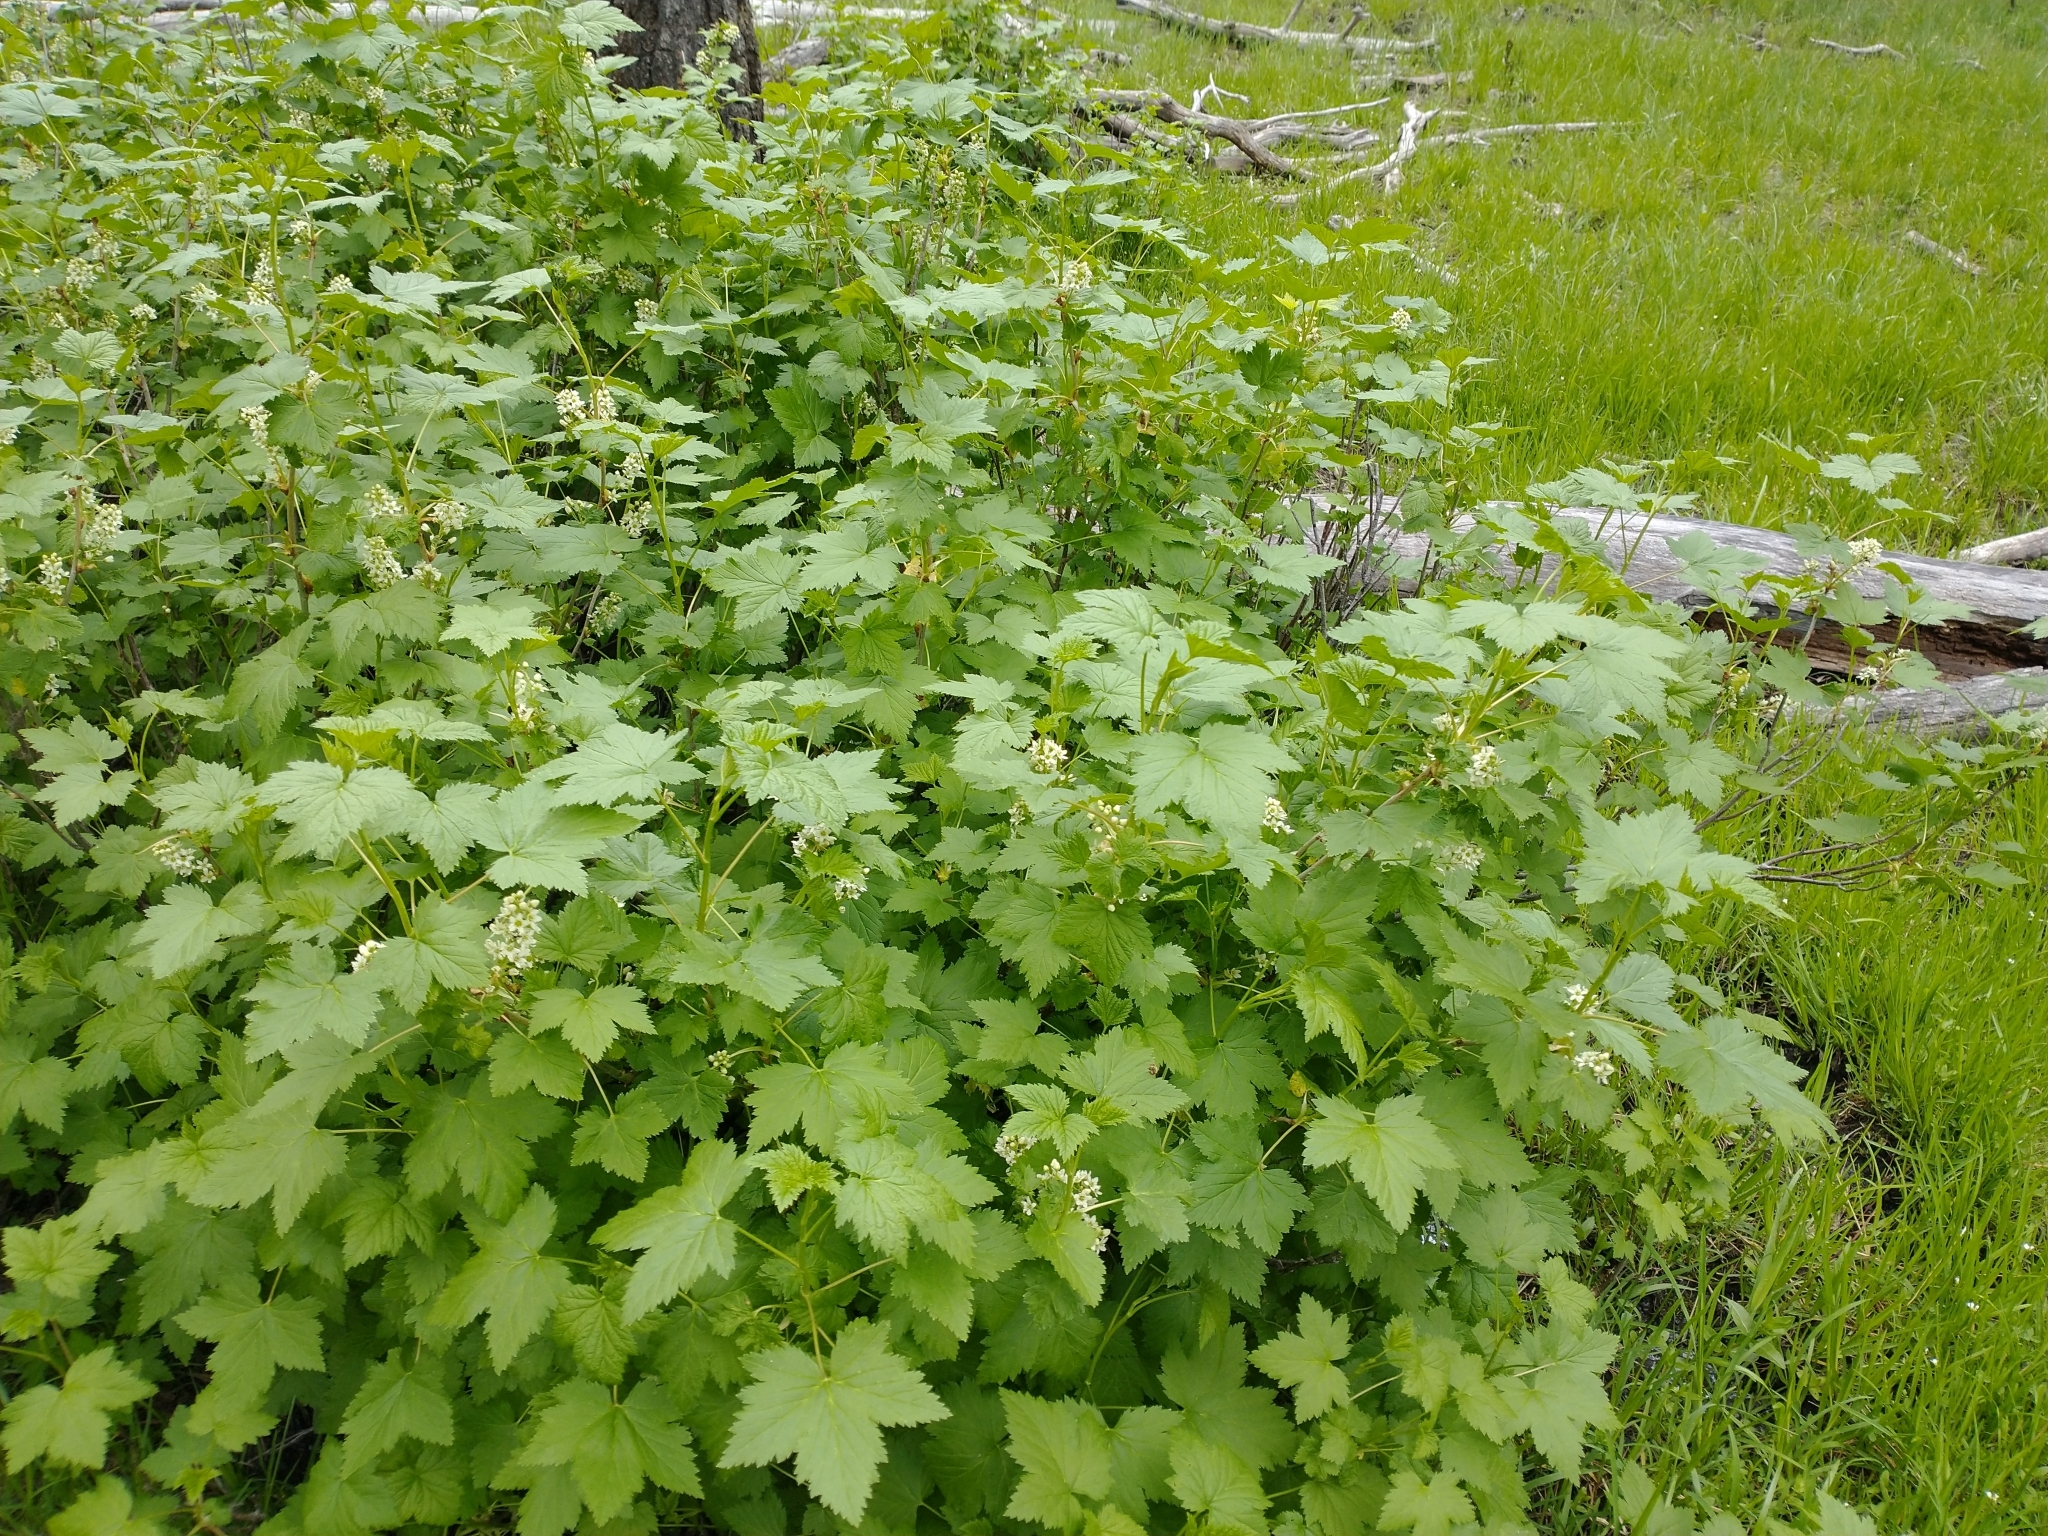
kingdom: Plantae
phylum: Tracheophyta
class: Magnoliopsida
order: Saxifragales
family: Grossulariaceae
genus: Ribes
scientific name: Ribes hudsonianum
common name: Northern black currant
